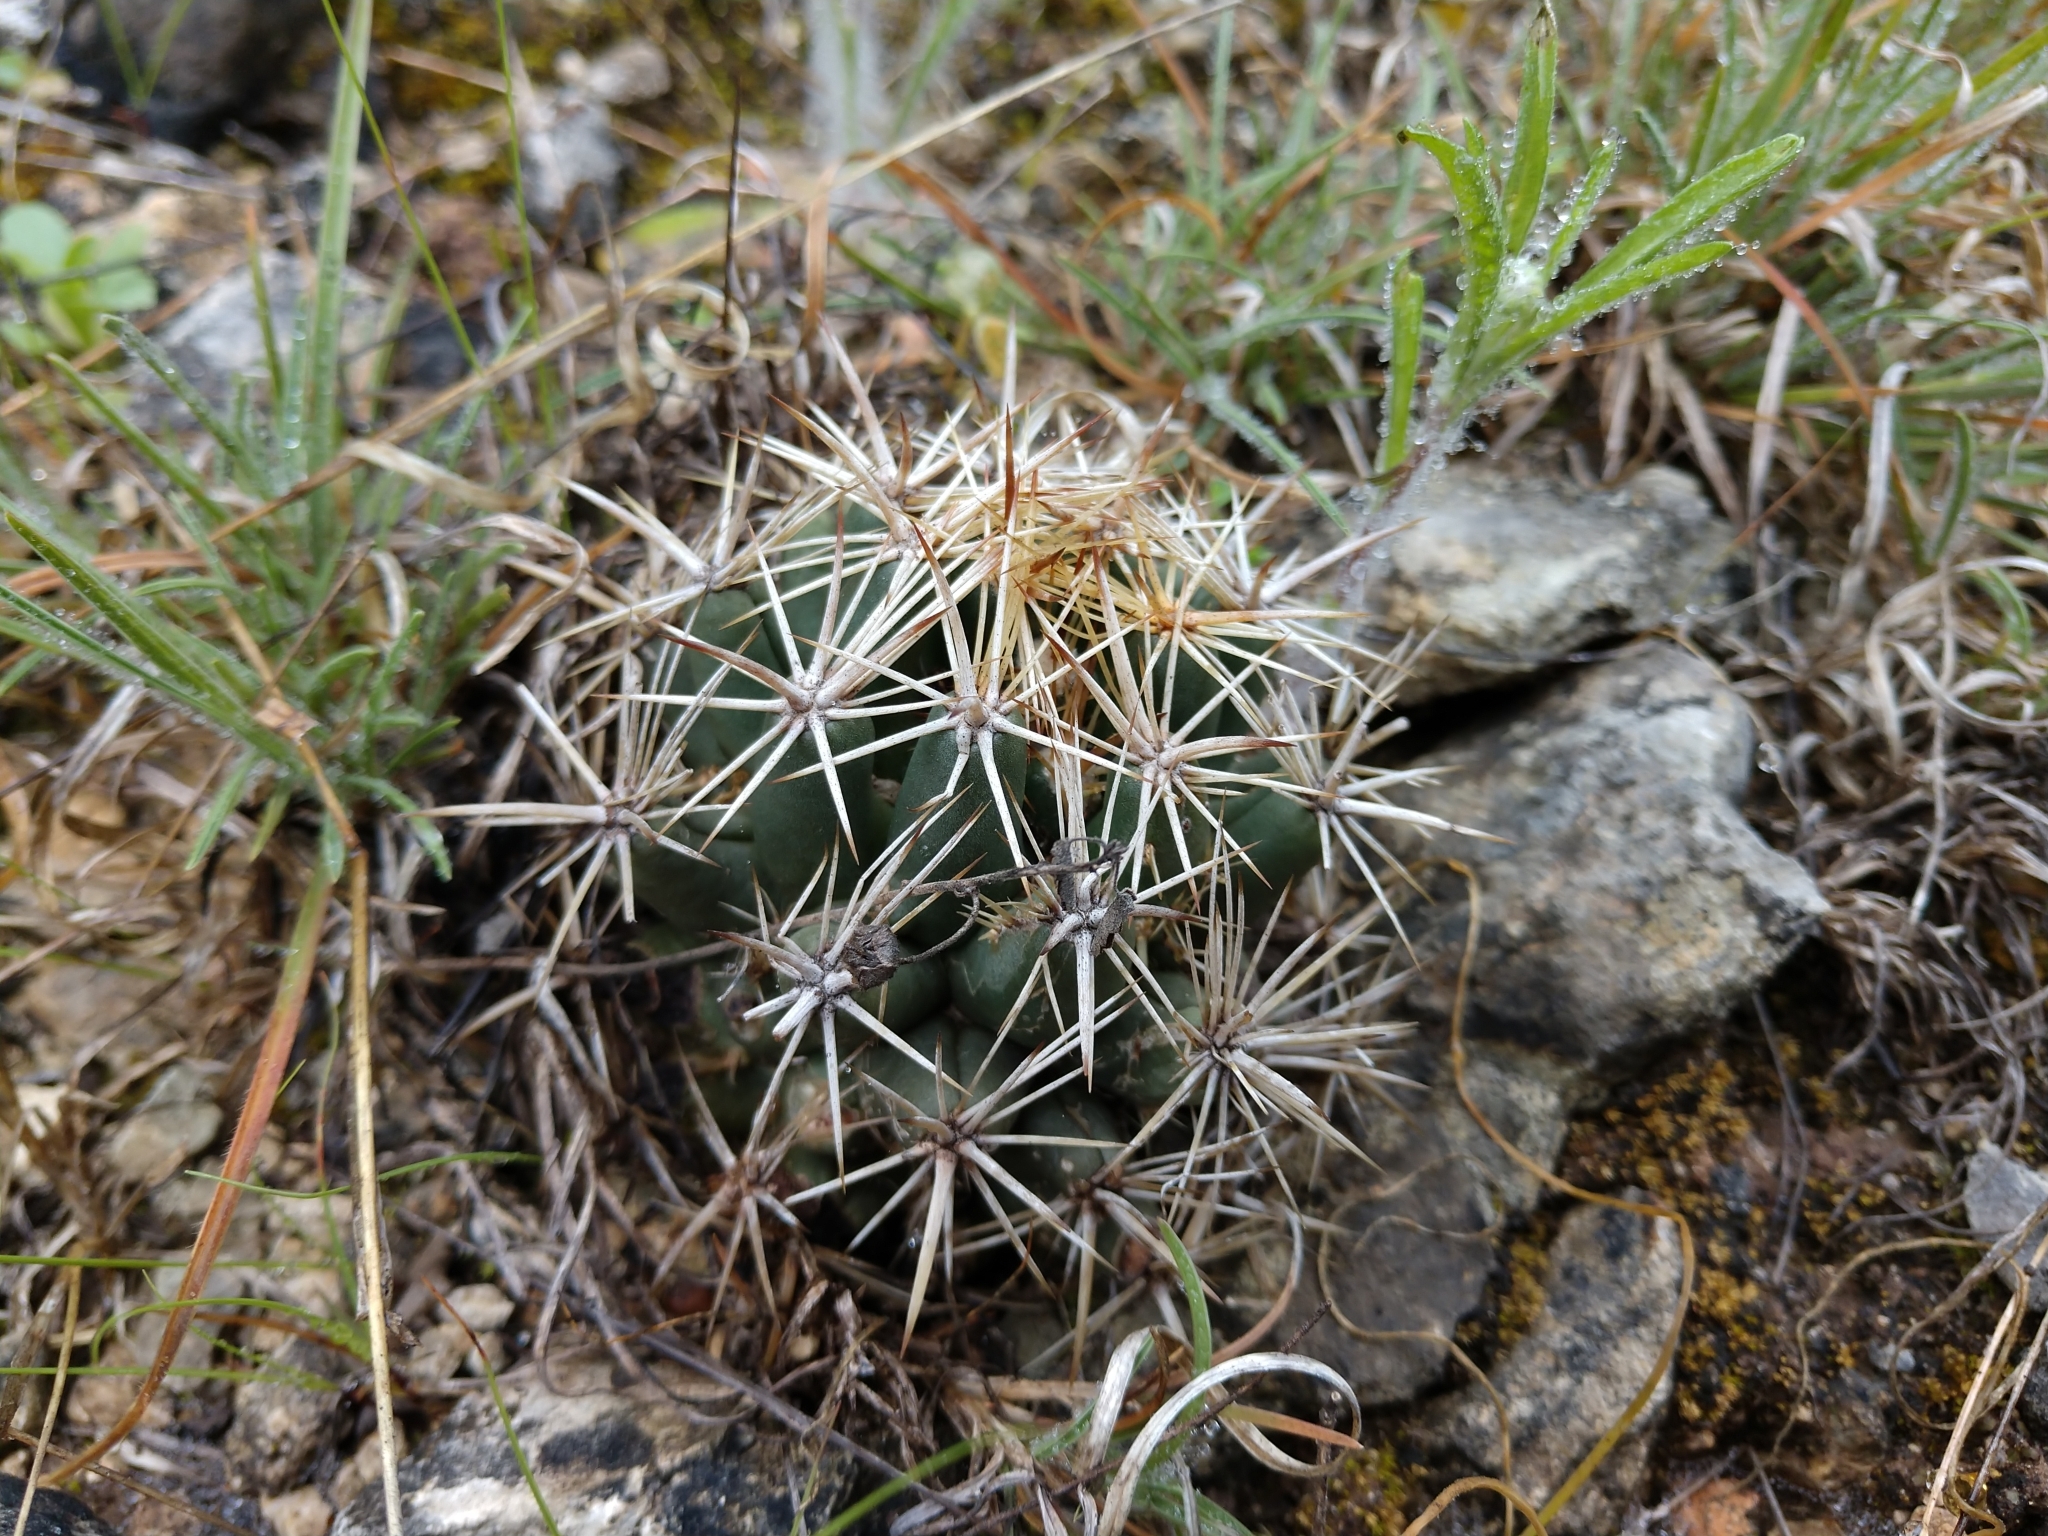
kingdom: Plantae
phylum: Tracheophyta
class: Magnoliopsida
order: Caryophyllales
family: Cactaceae
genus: Coryphantha
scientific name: Coryphantha sulcata
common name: Finger cactus
